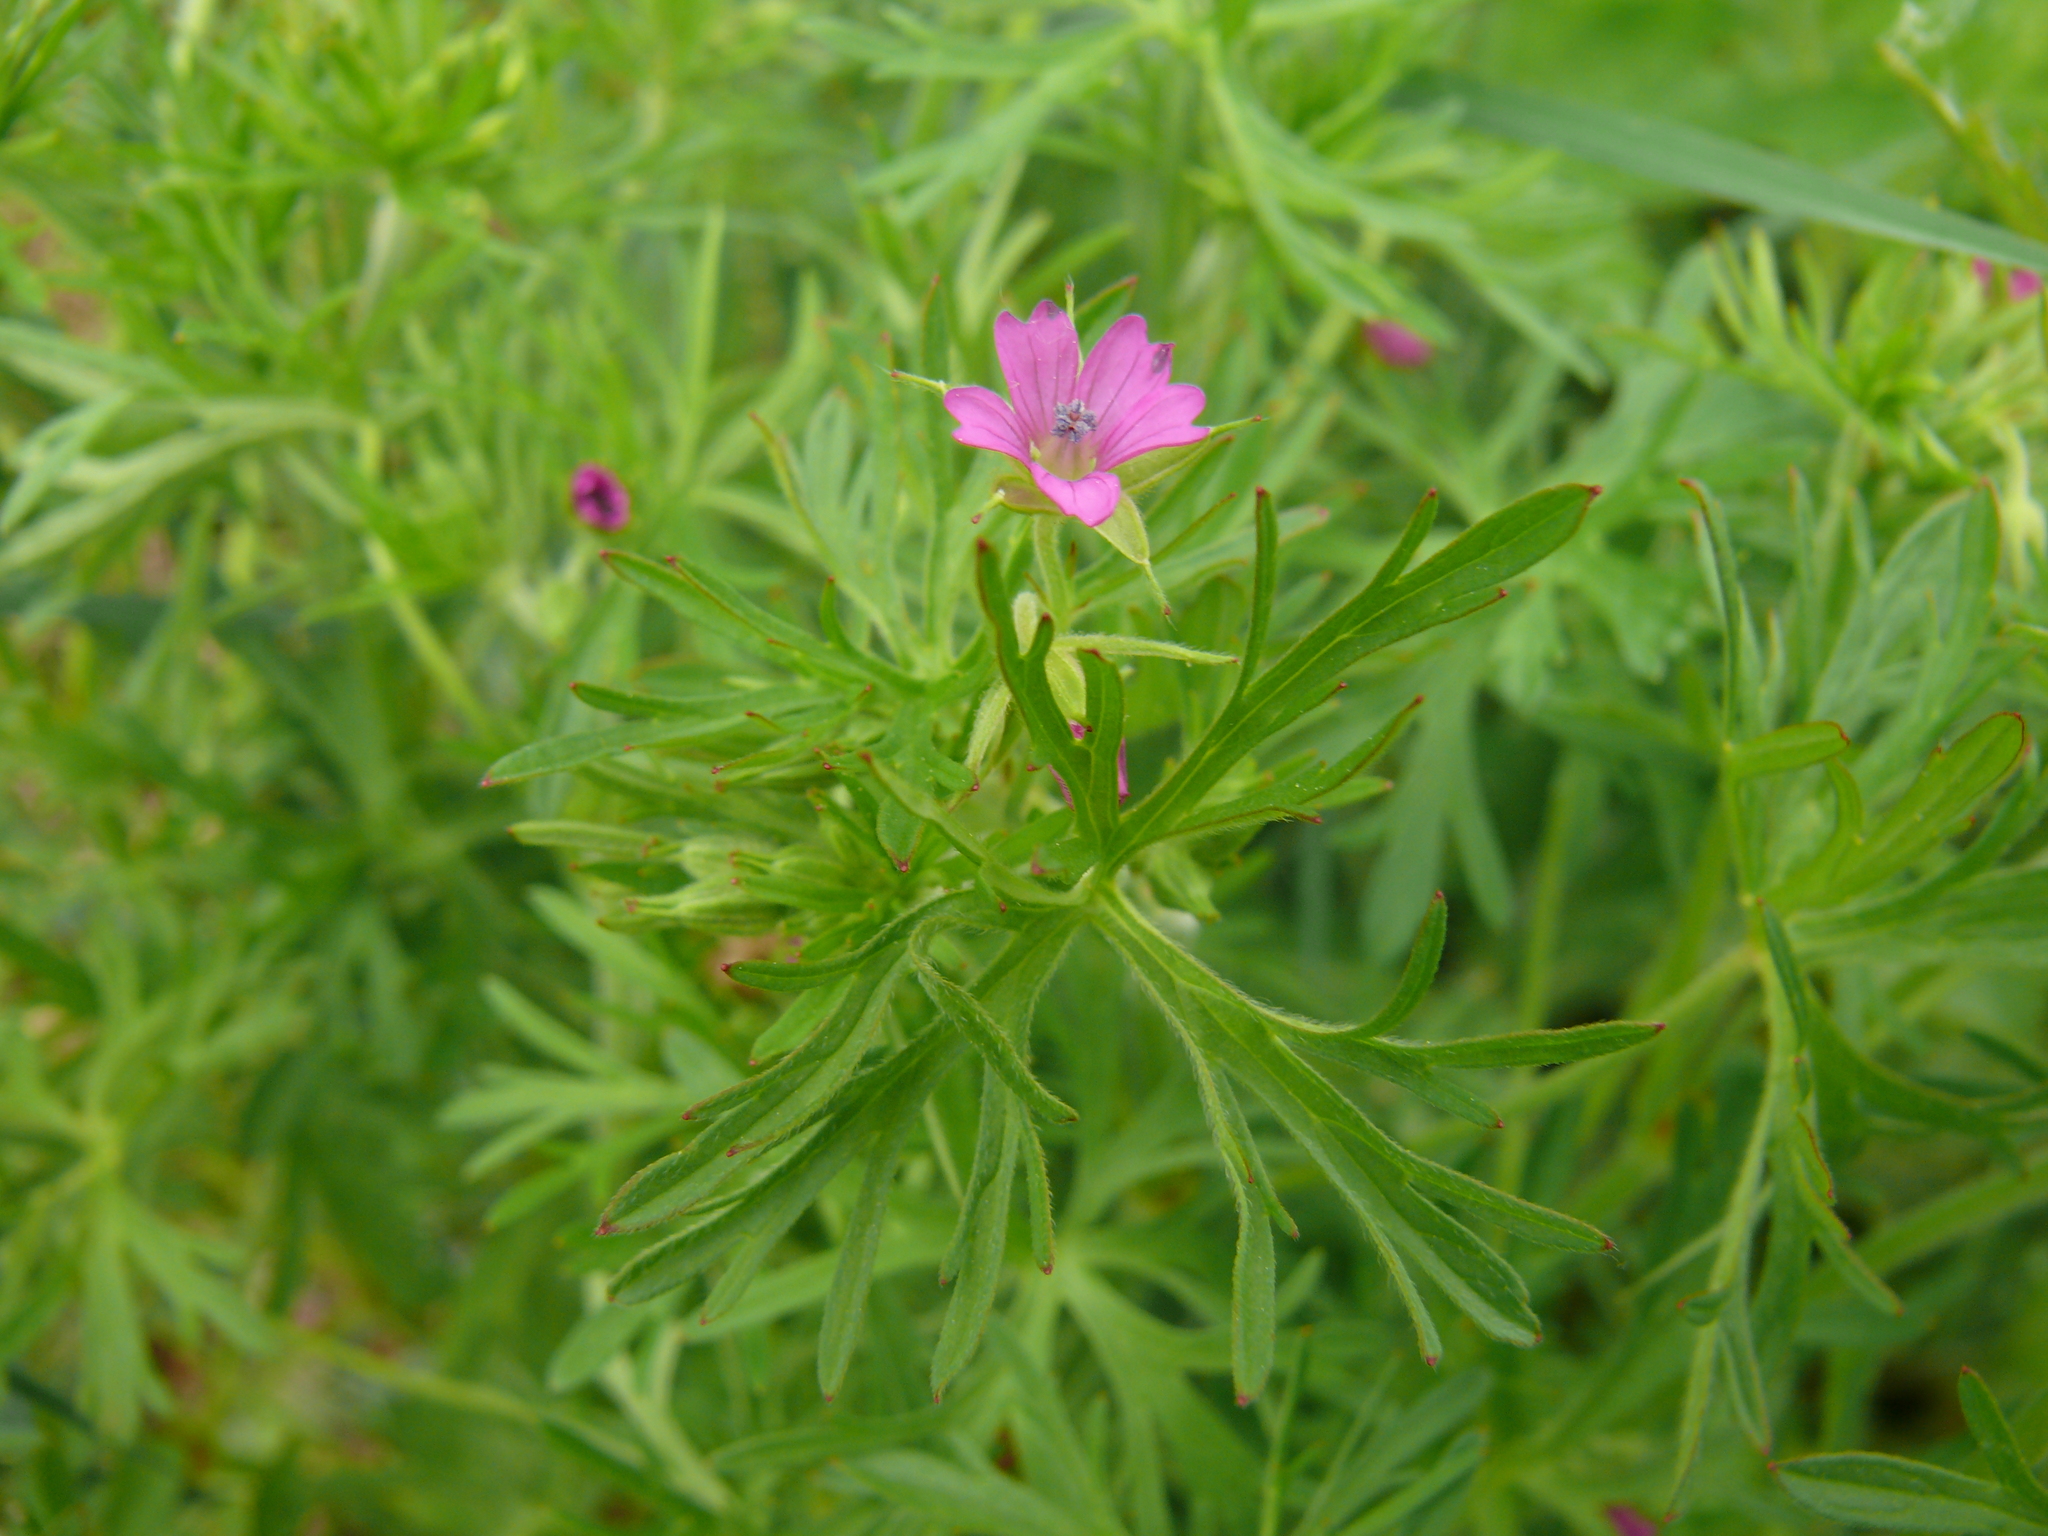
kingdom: Plantae
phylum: Tracheophyta
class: Magnoliopsida
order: Geraniales
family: Geraniaceae
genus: Geranium
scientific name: Geranium dissectum
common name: Cut-leaved crane's-bill
